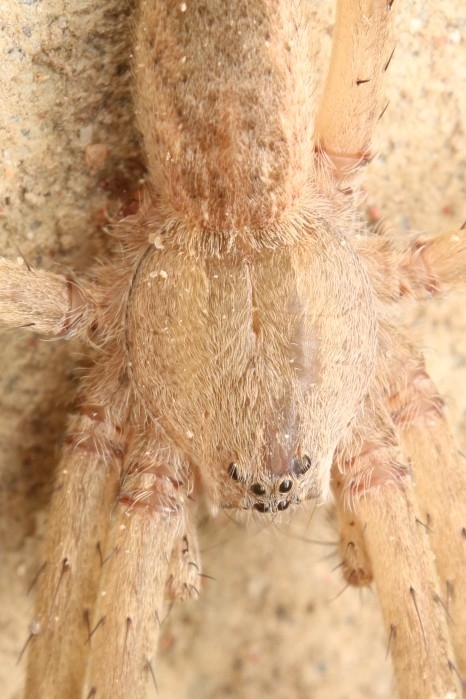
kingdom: Animalia
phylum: Arthropoda
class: Arachnida
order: Araneae
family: Pisauridae
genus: Pisaurina
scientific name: Pisaurina mira
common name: American nursery web spider
